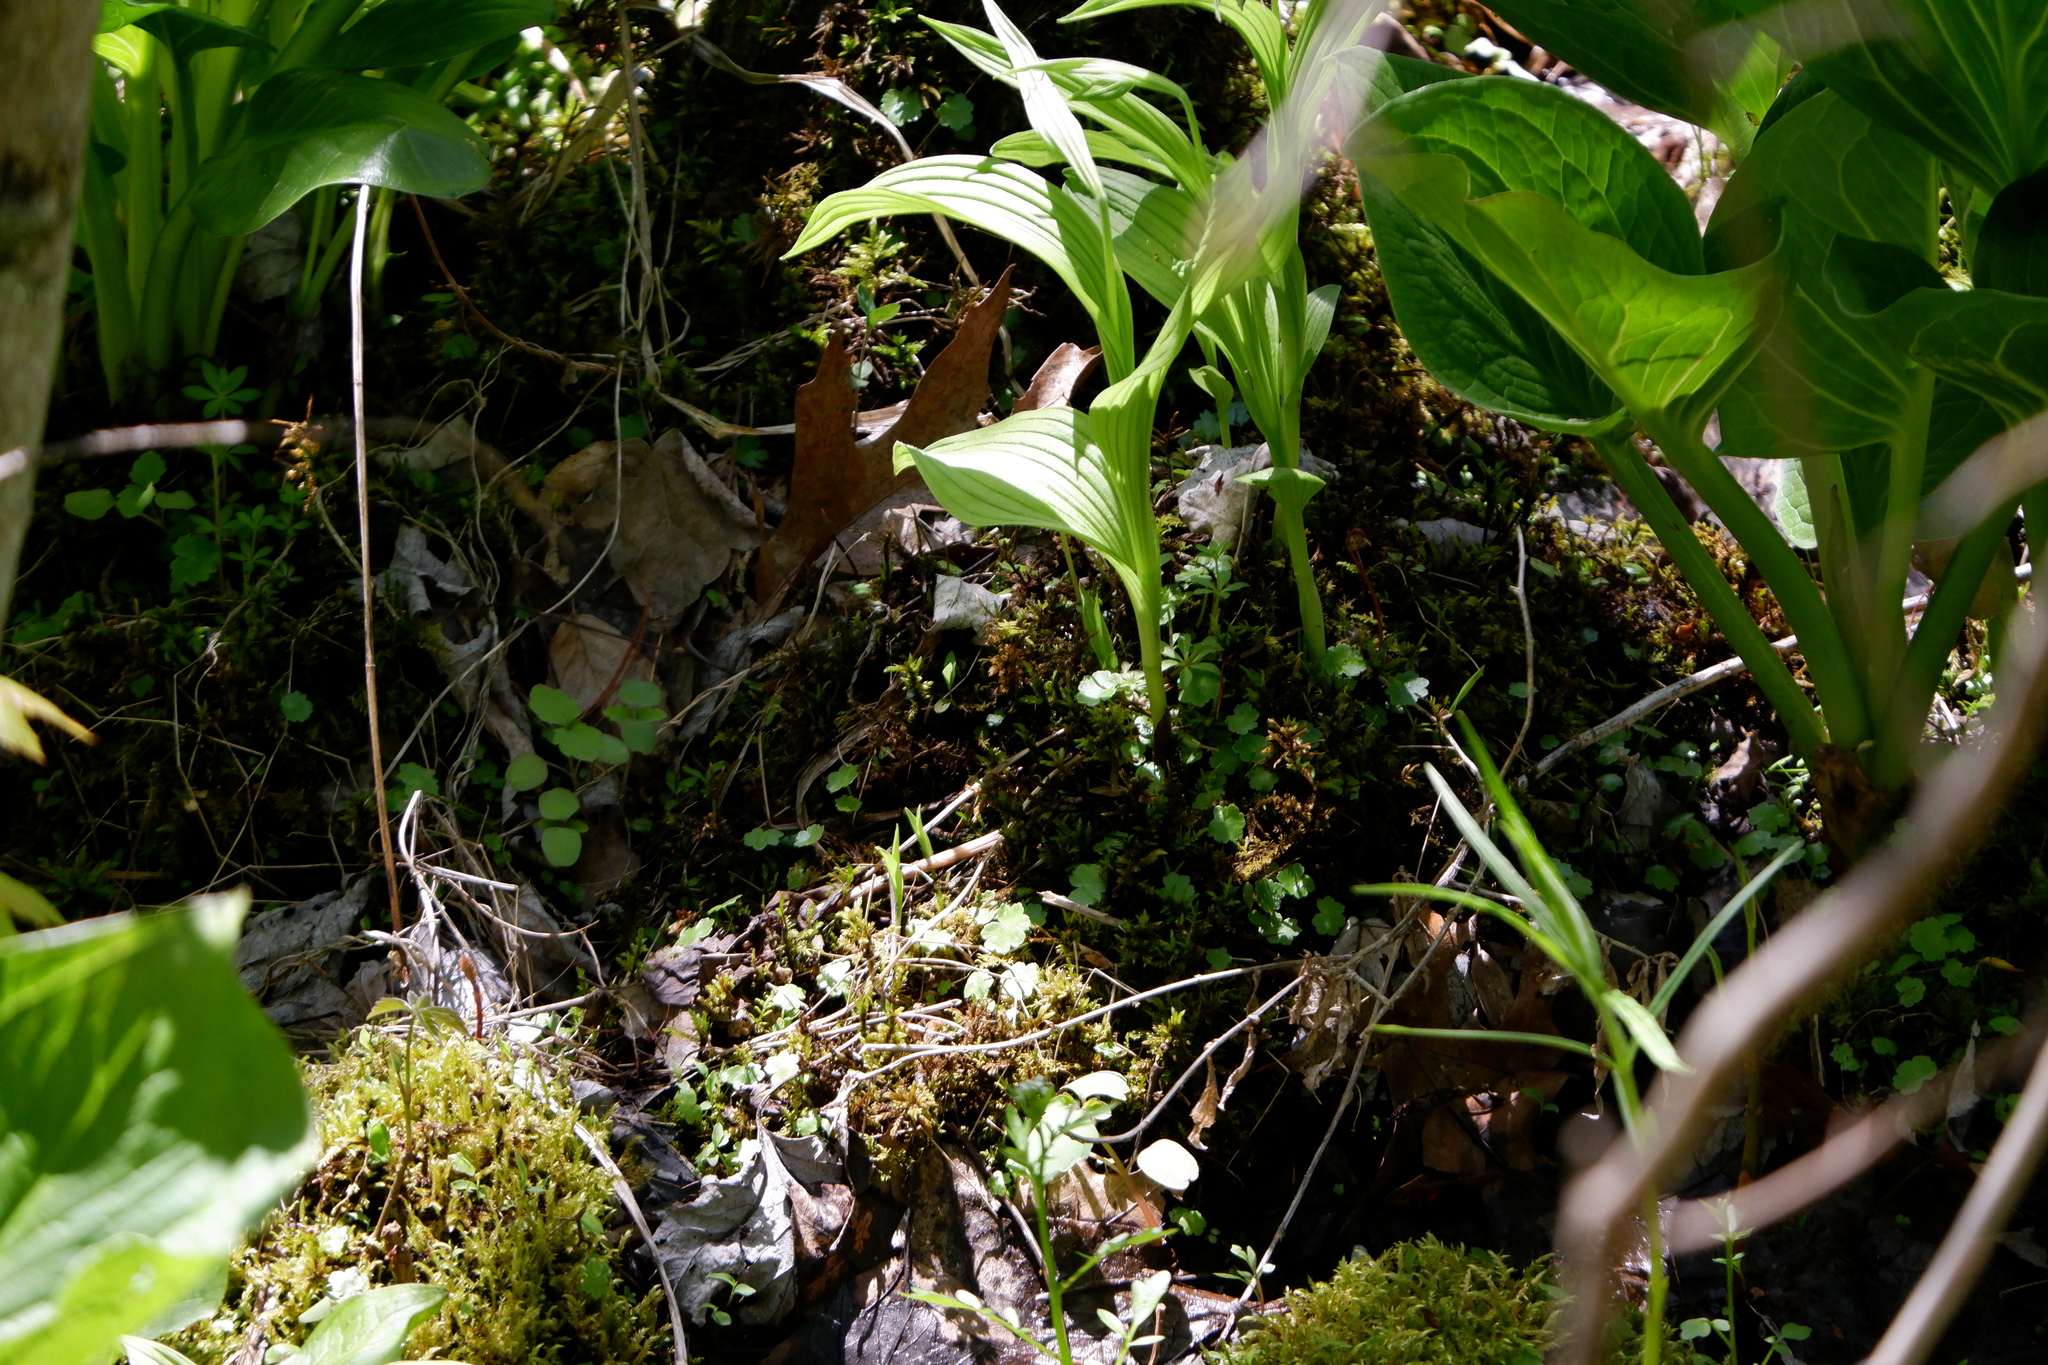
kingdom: Plantae
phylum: Tracheophyta
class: Magnoliopsida
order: Apiales
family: Araliaceae
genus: Hydrocotyle
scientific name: Hydrocotyle americana
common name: American water-pennywort
